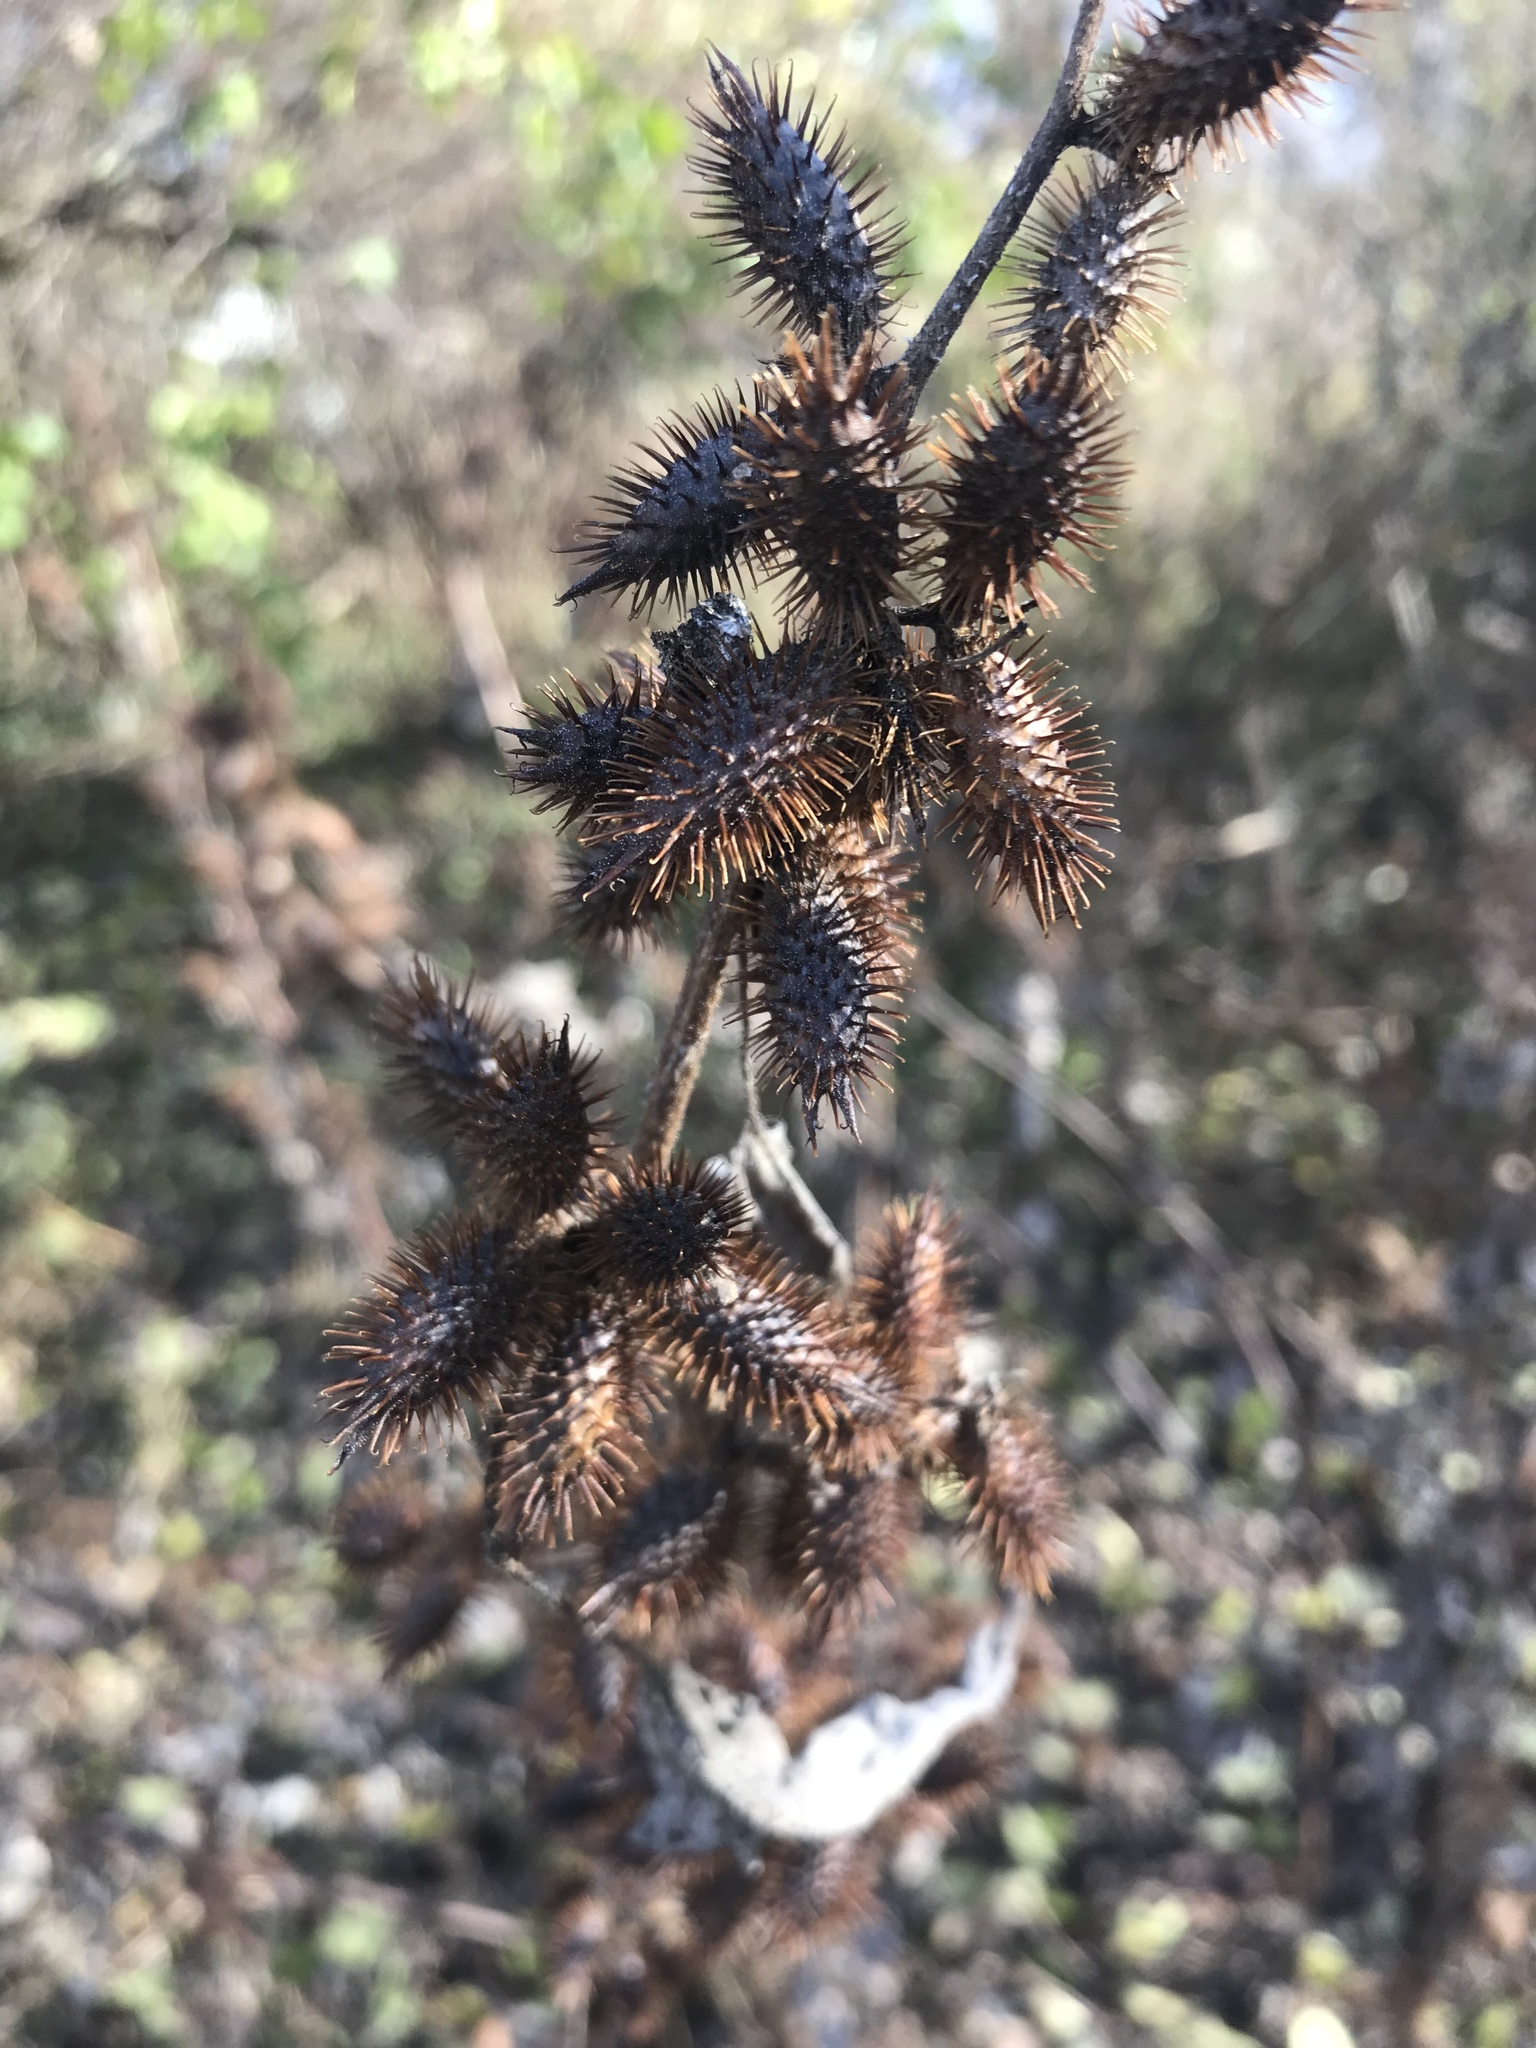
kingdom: Plantae
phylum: Tracheophyta
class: Magnoliopsida
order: Asterales
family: Asteraceae
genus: Xanthium
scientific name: Xanthium strumarium
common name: Rough cocklebur
